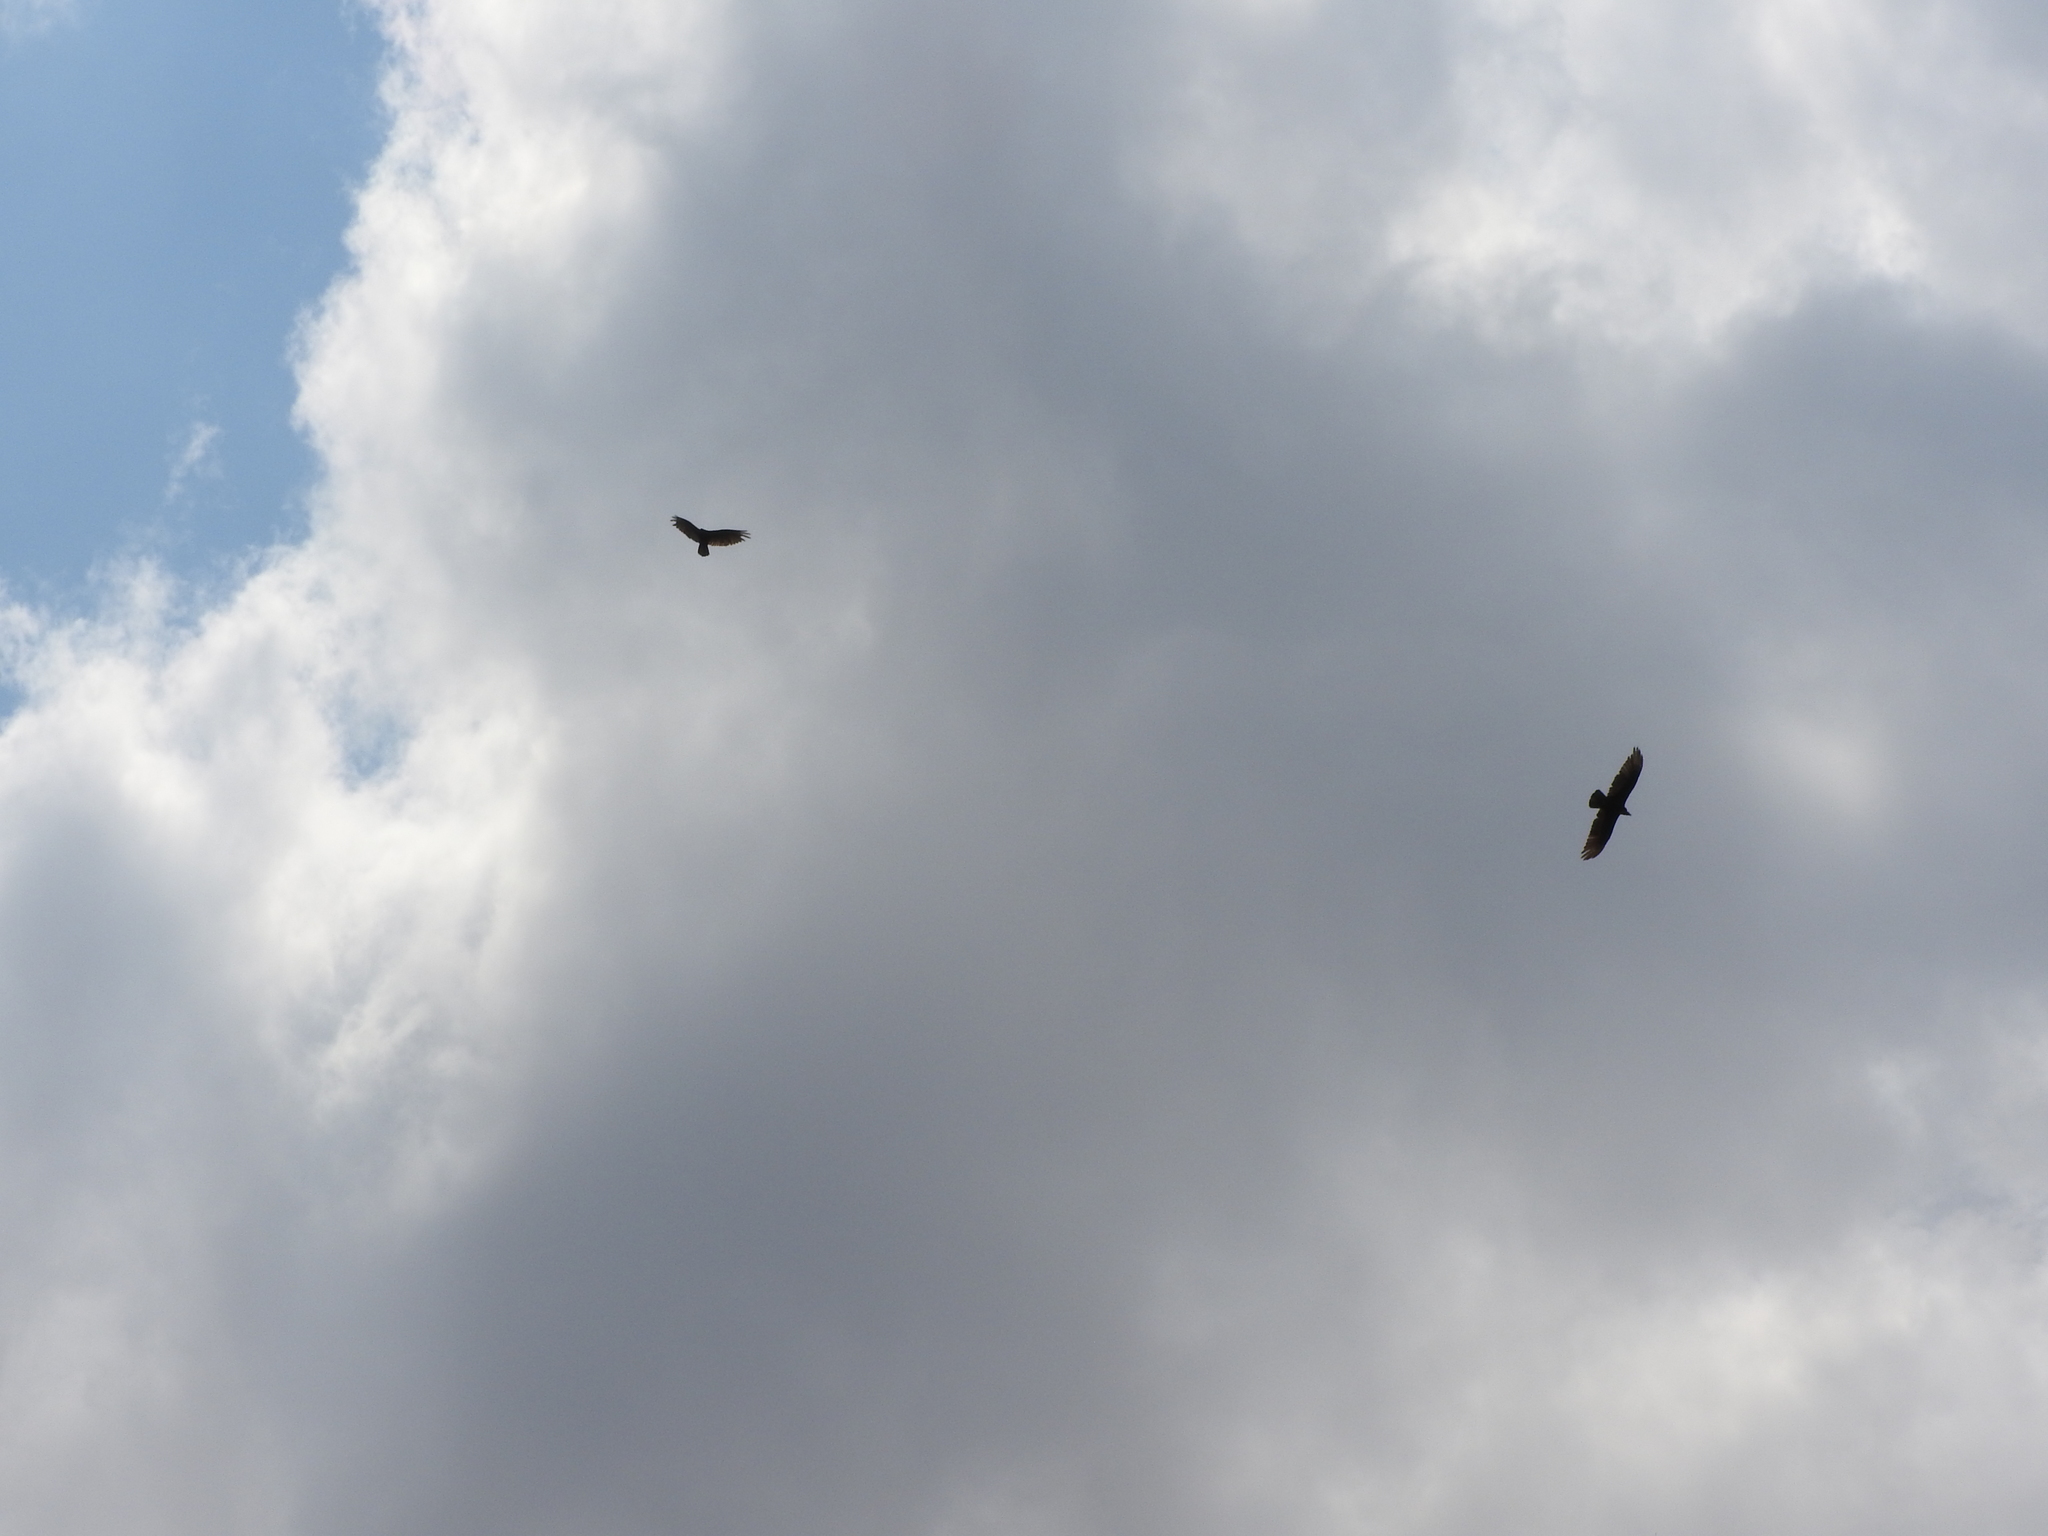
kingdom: Animalia
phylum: Chordata
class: Aves
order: Accipitriformes
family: Cathartidae
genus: Cathartes
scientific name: Cathartes aura
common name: Turkey vulture
